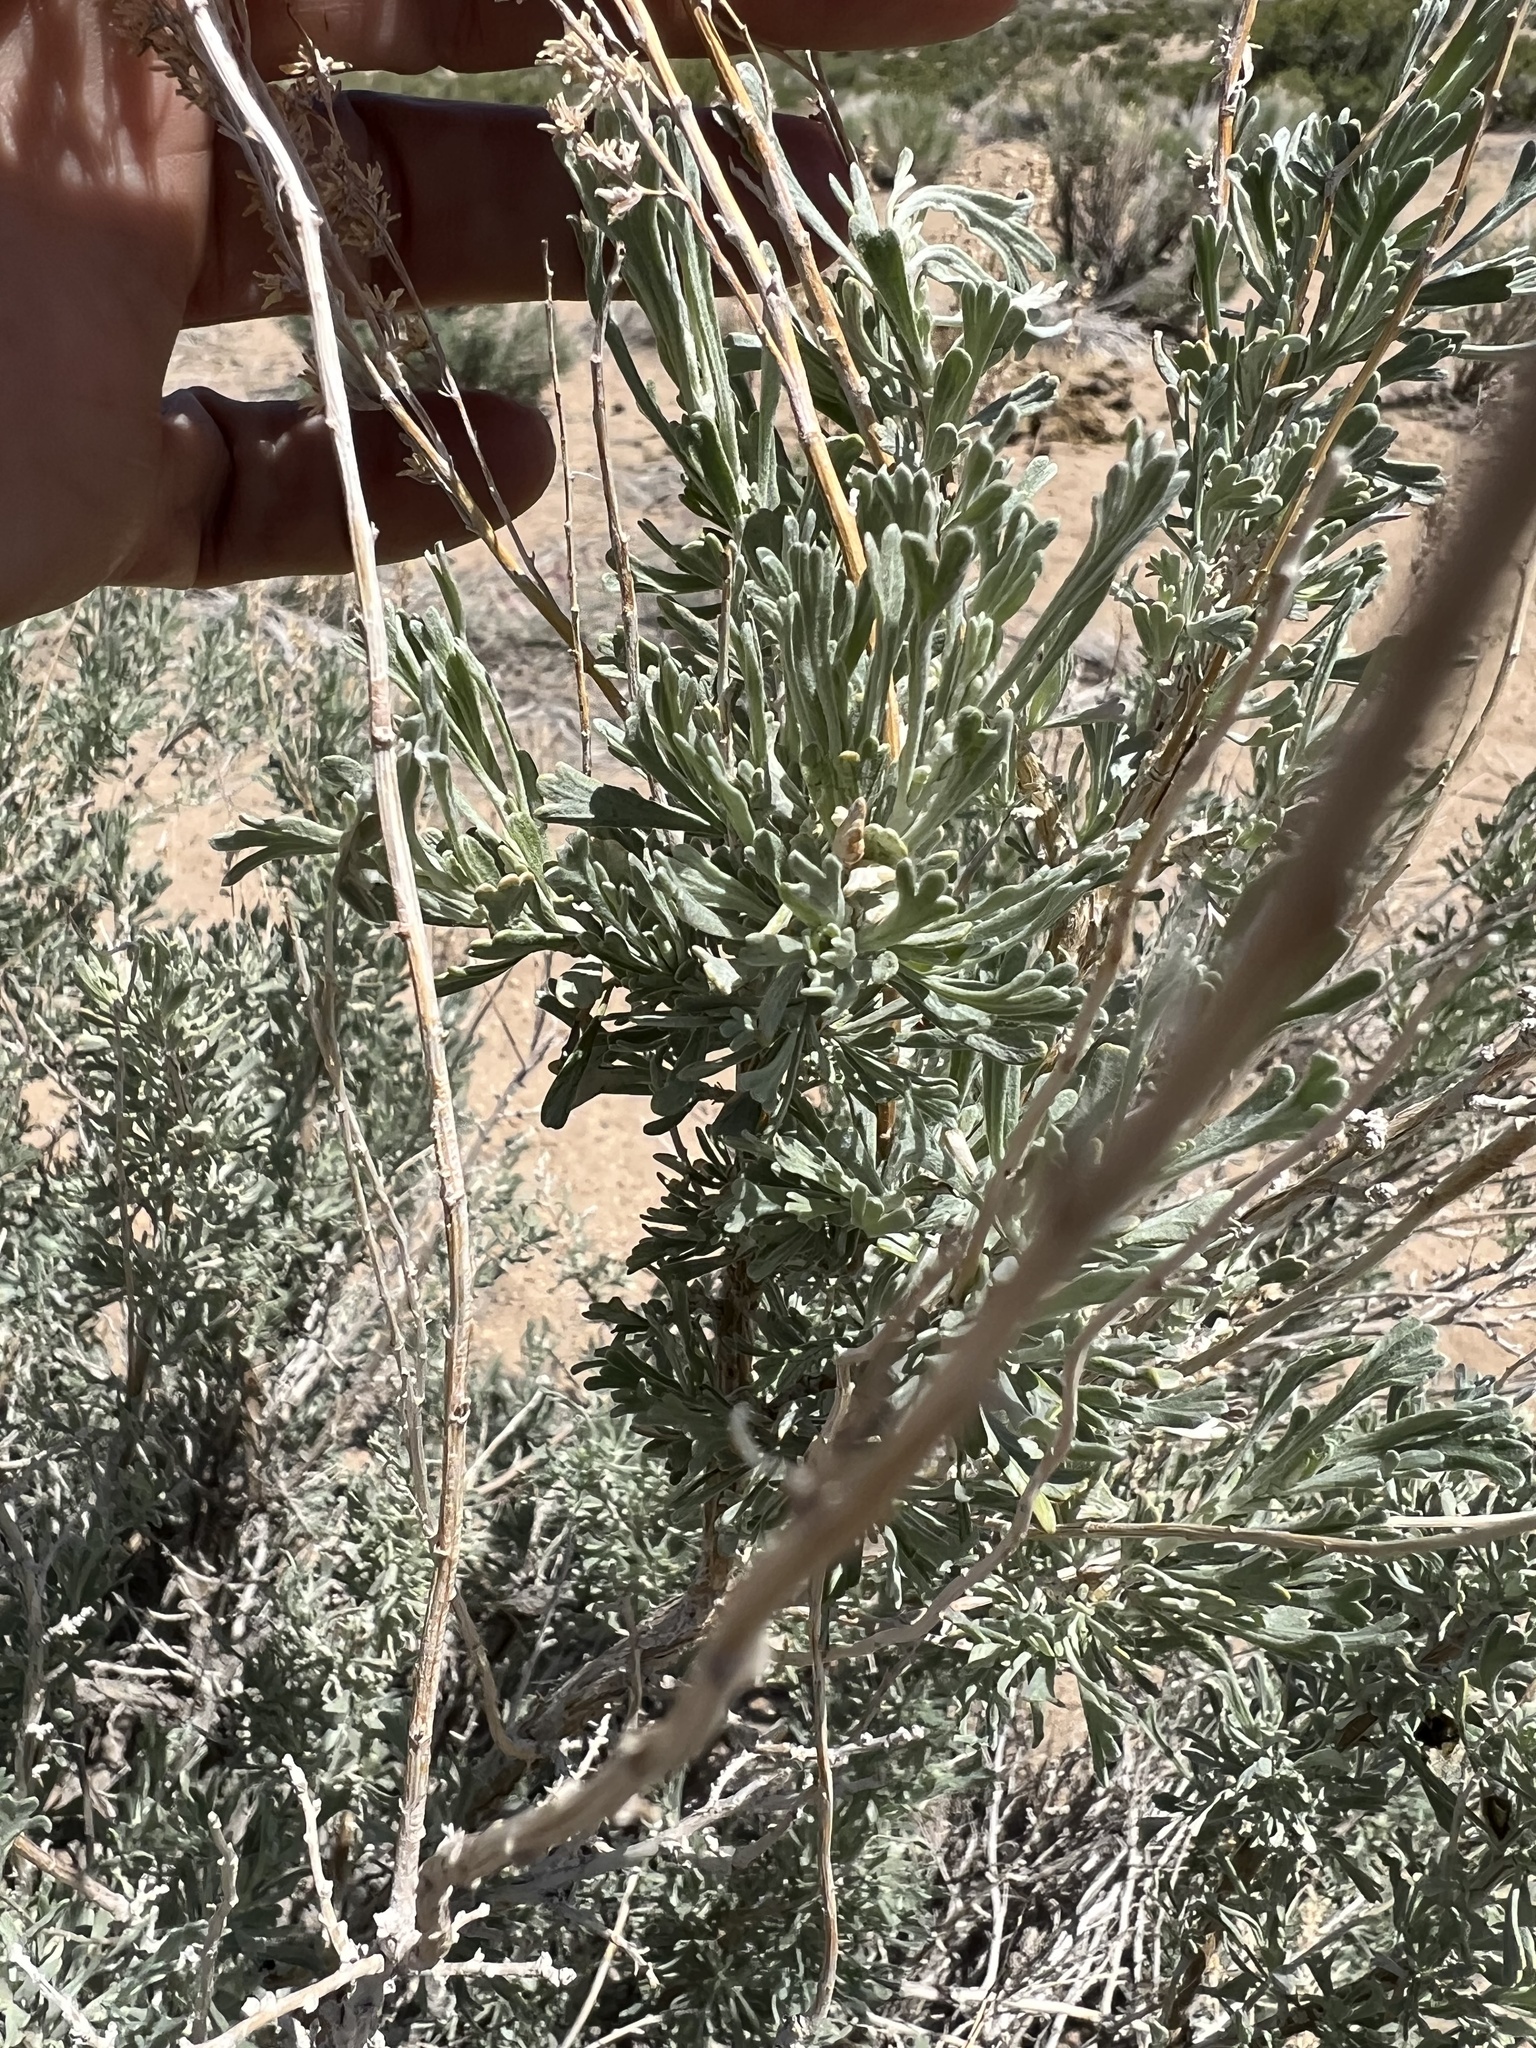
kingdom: Plantae
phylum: Tracheophyta
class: Magnoliopsida
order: Asterales
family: Asteraceae
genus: Artemisia
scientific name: Artemisia tridentata
